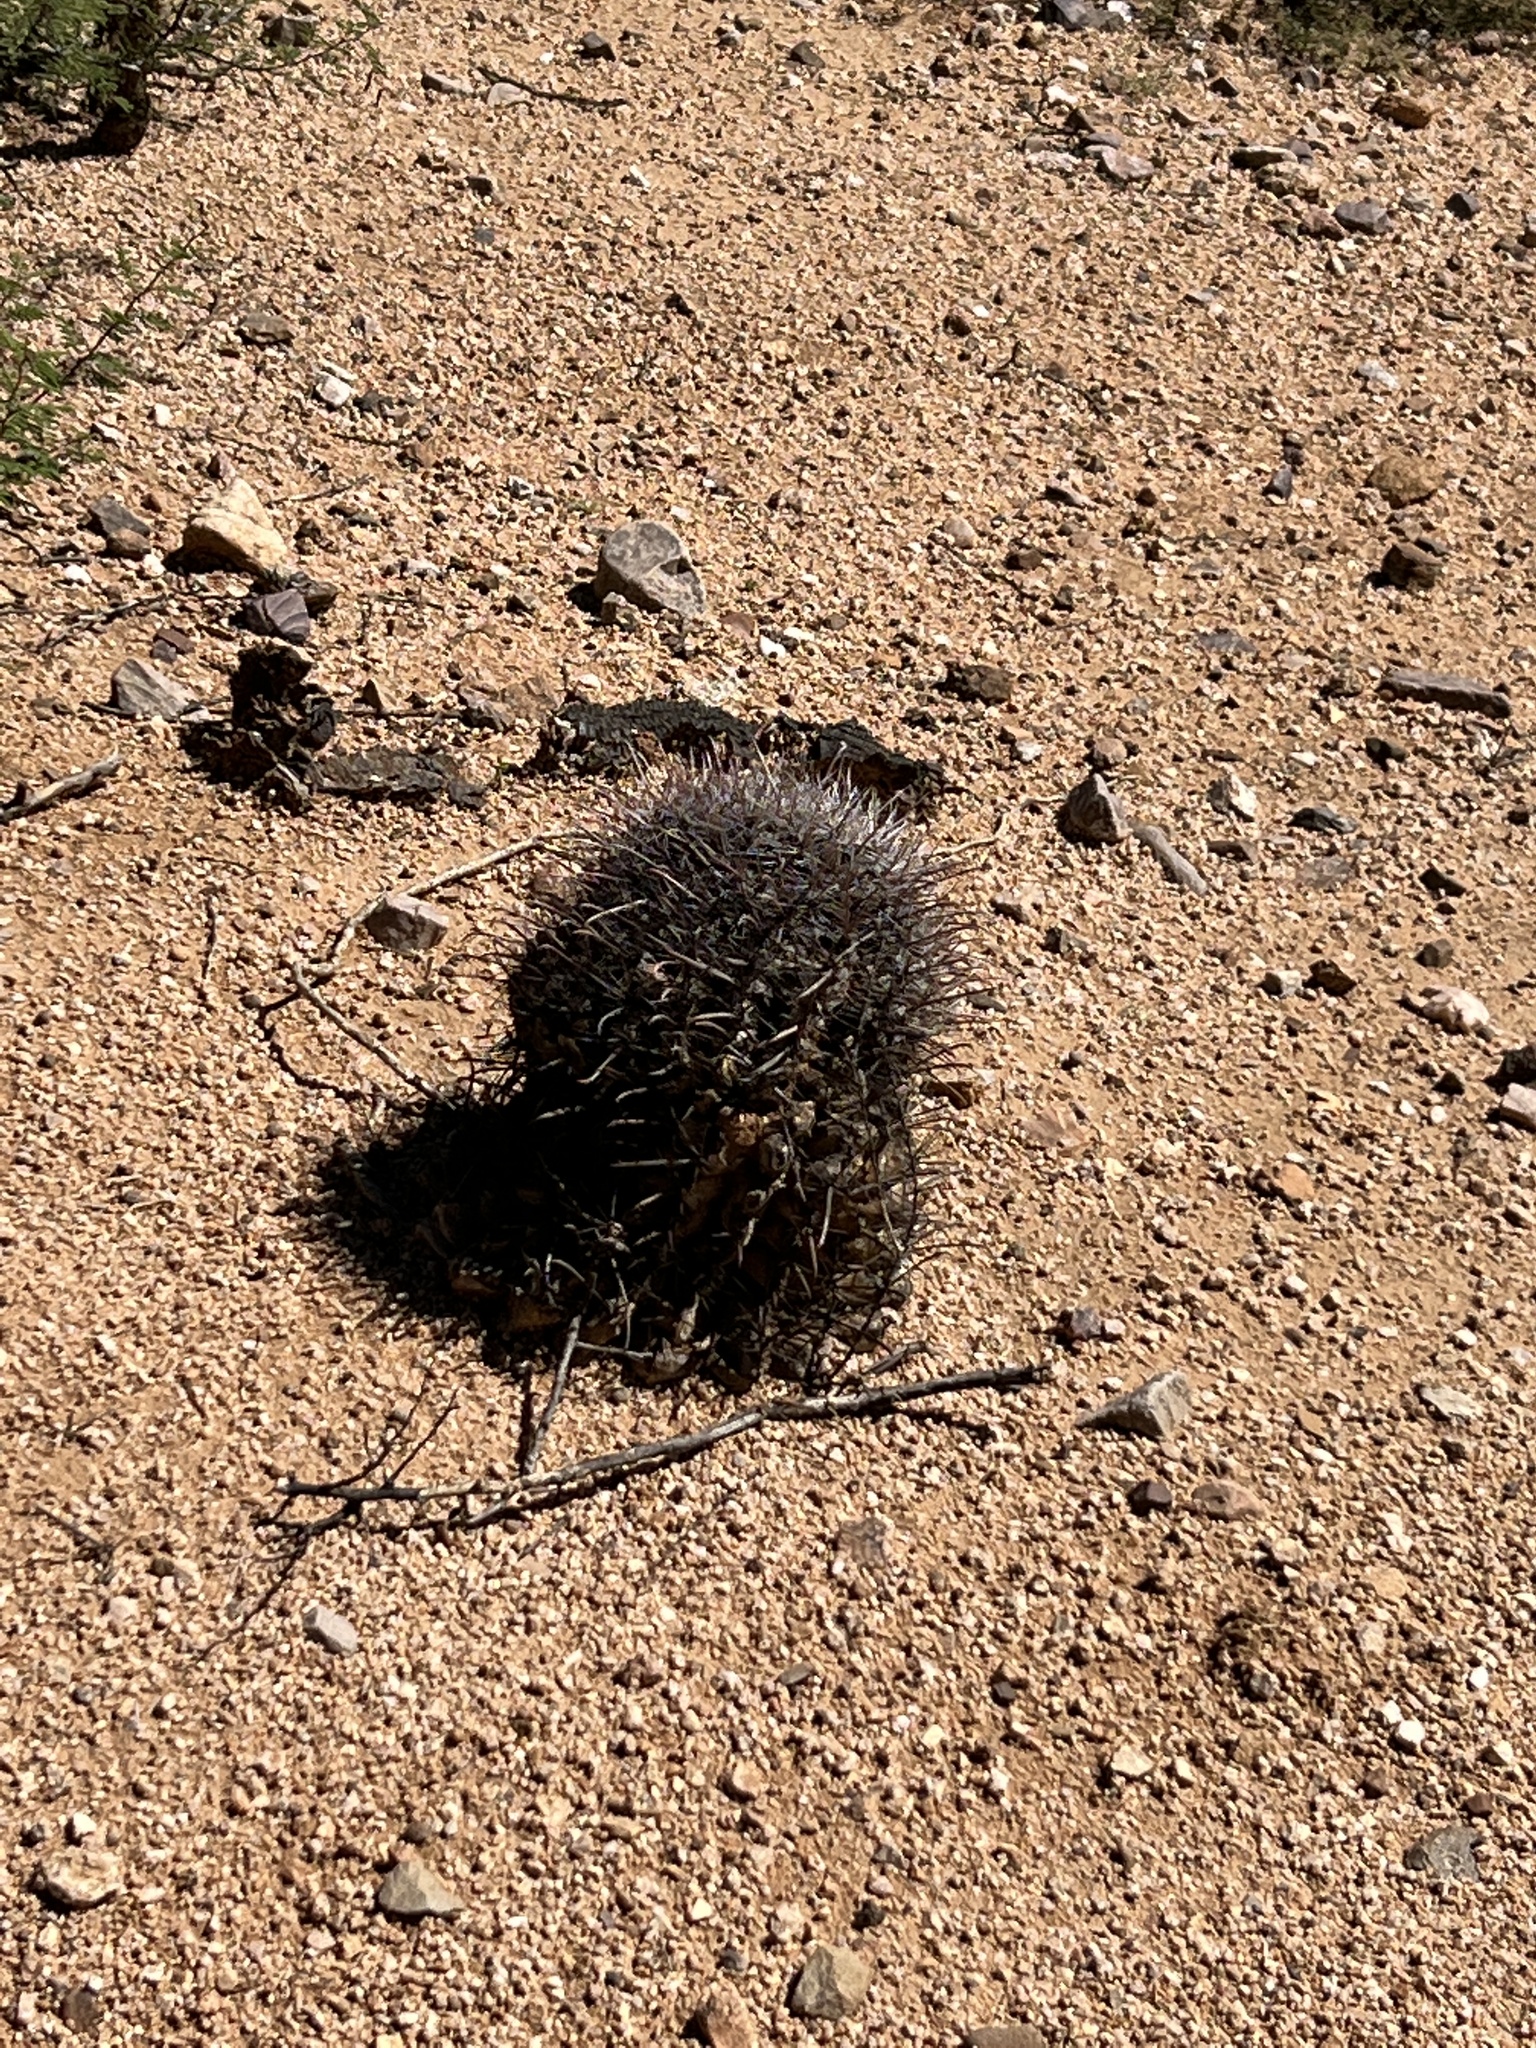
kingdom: Plantae
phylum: Tracheophyta
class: Magnoliopsida
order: Caryophyllales
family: Cactaceae
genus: Ferocactus
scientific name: Ferocactus wislizeni
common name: Candy barrel cactus
